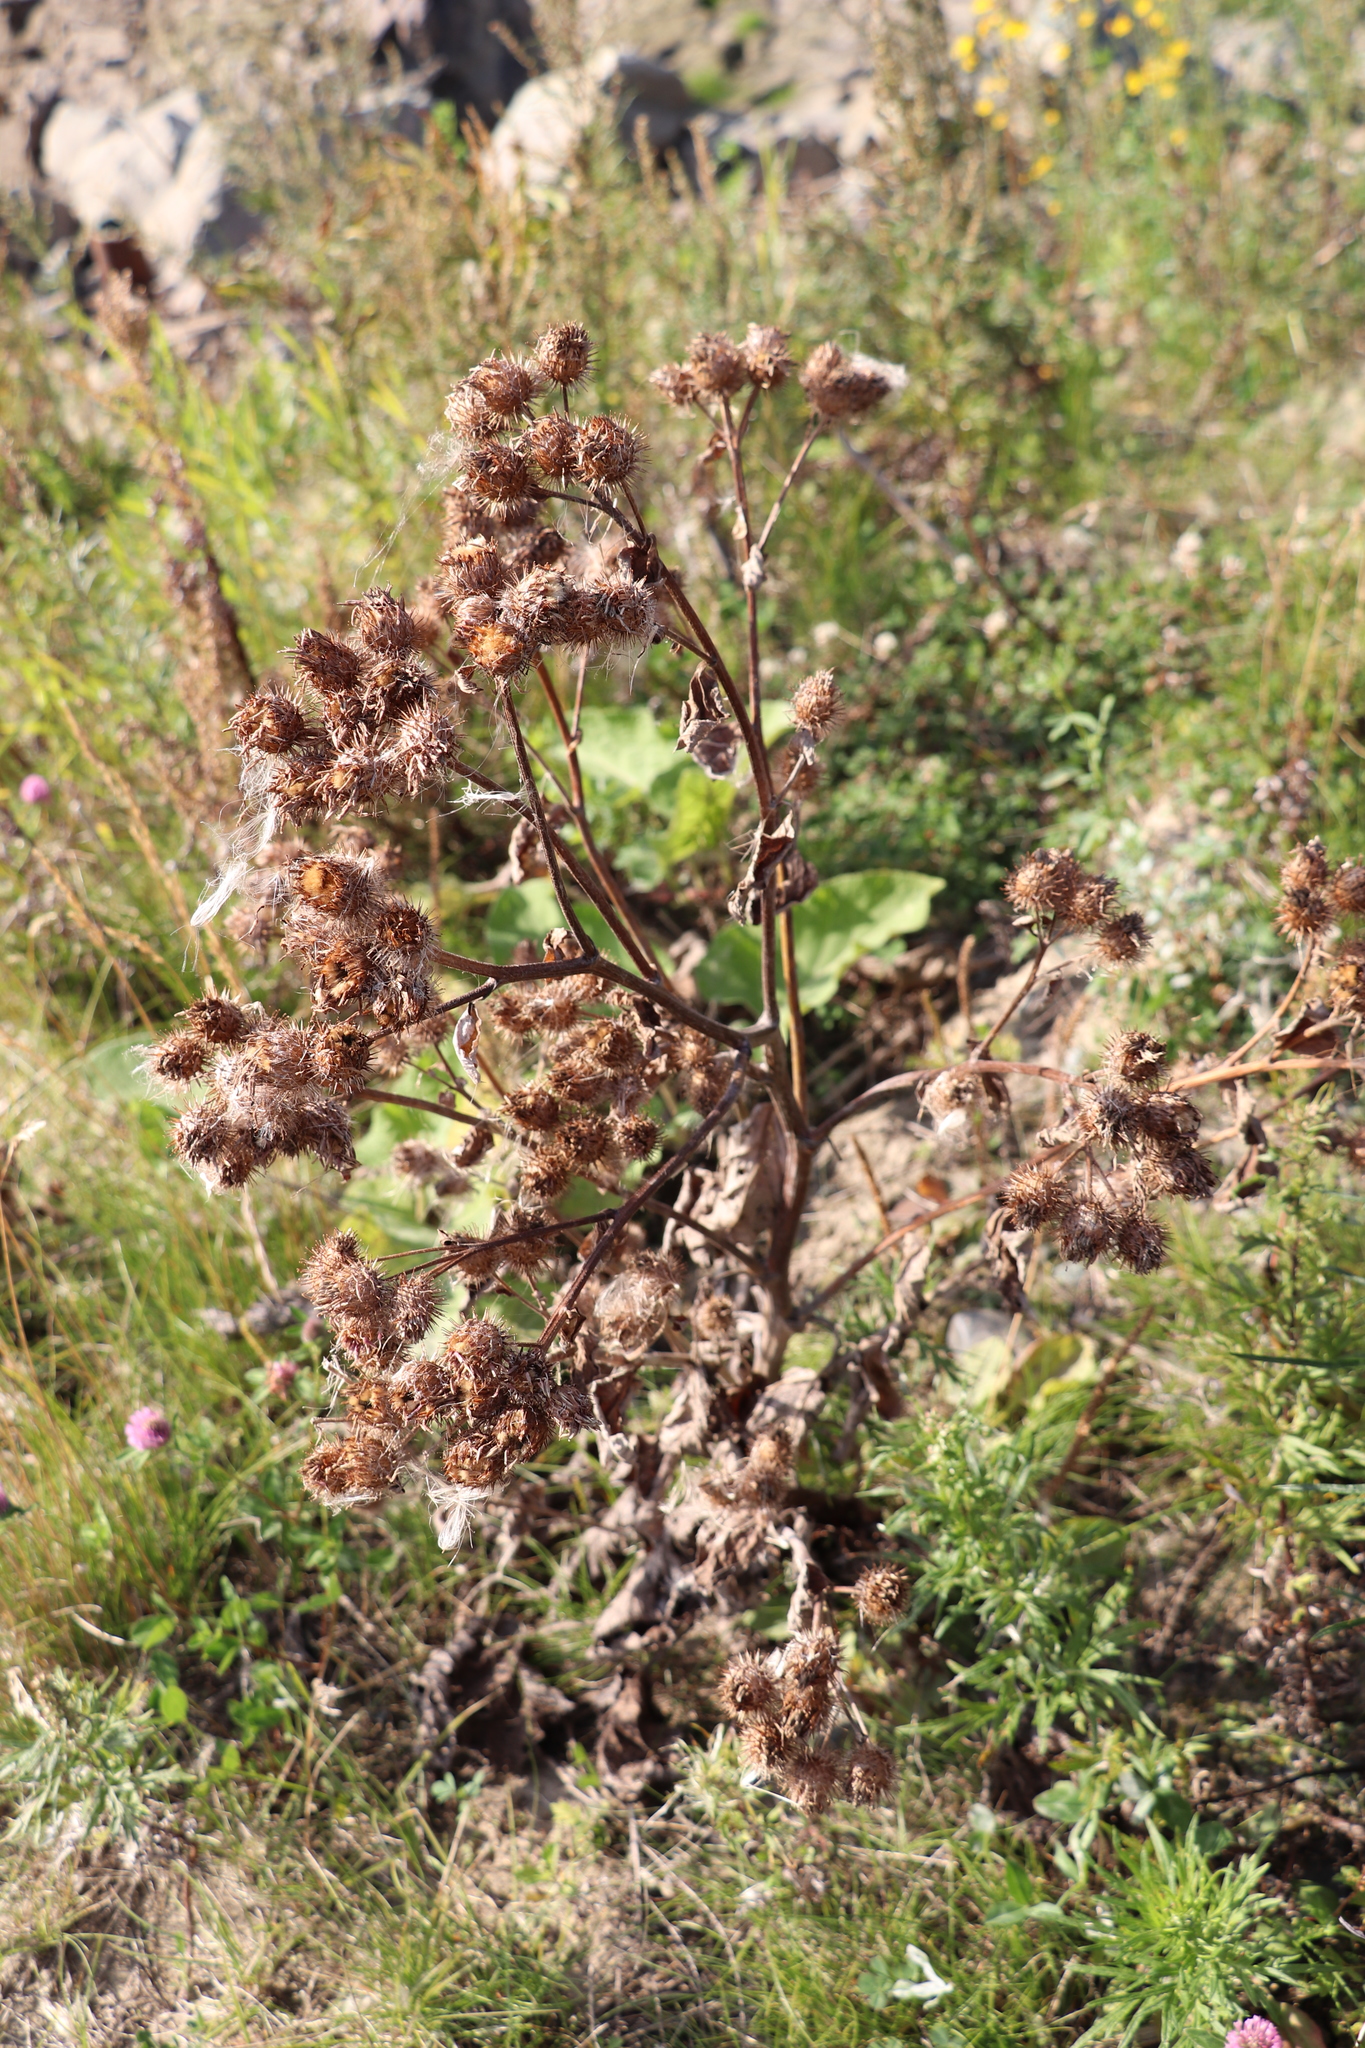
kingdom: Plantae
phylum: Tracheophyta
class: Magnoliopsida
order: Asterales
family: Asteraceae
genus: Arctium
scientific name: Arctium tomentosum
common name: Woolly burdock
